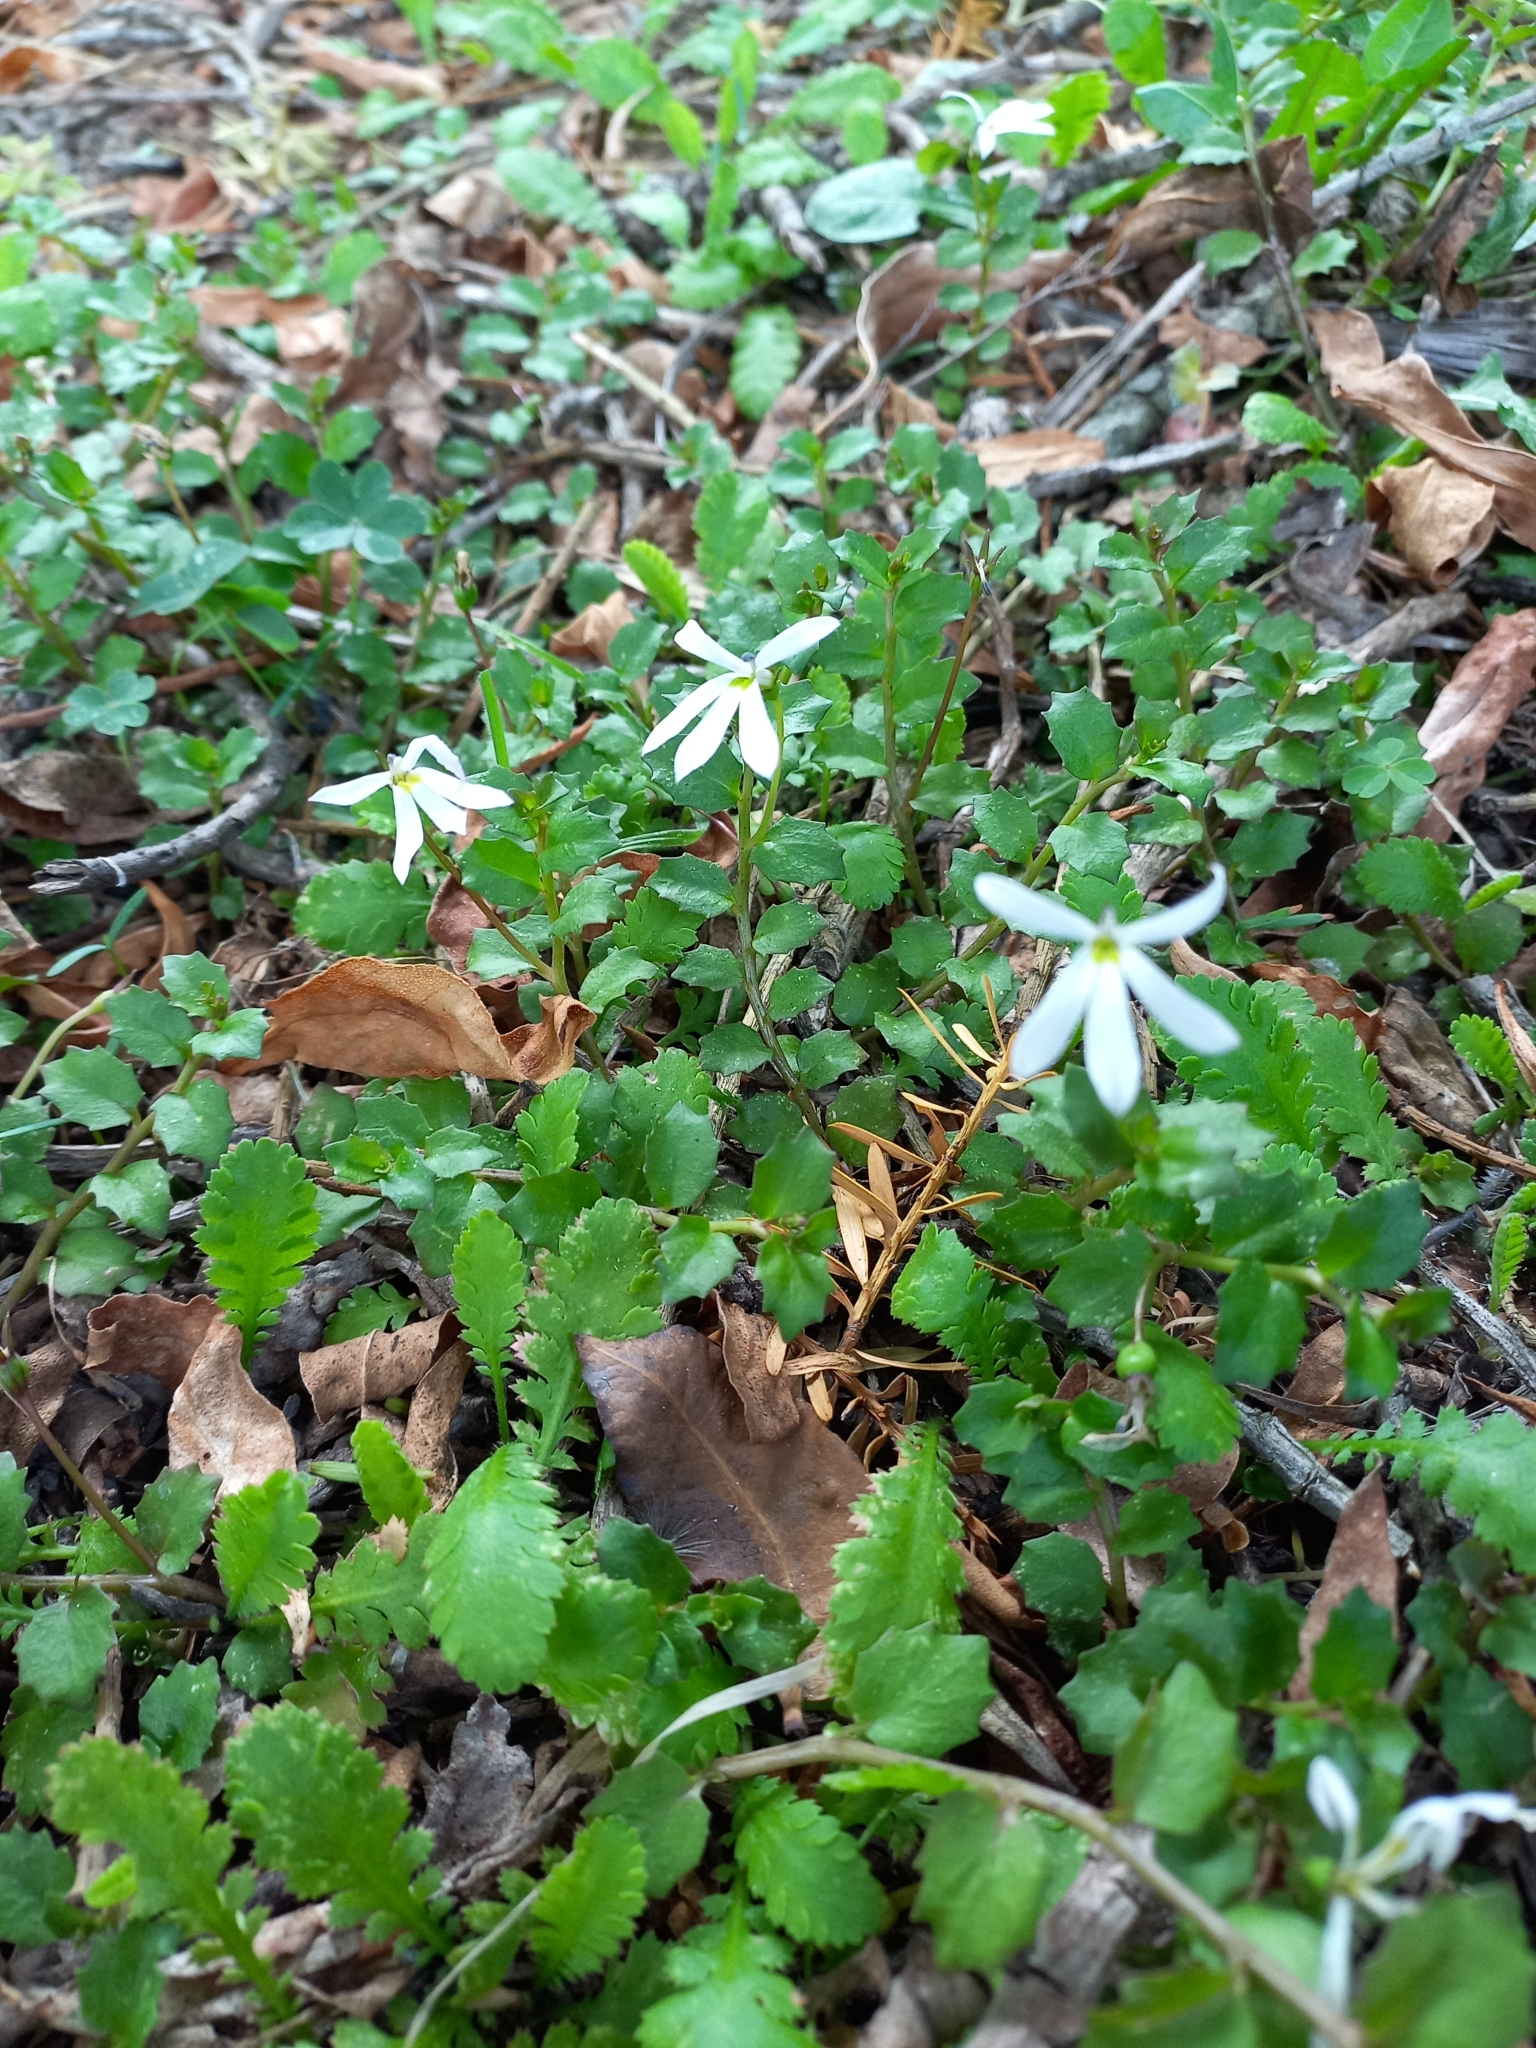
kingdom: Plantae
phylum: Tracheophyta
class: Magnoliopsida
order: Asterales
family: Campanulaceae
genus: Lobelia
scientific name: Lobelia angulata
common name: Lawn lobelia
